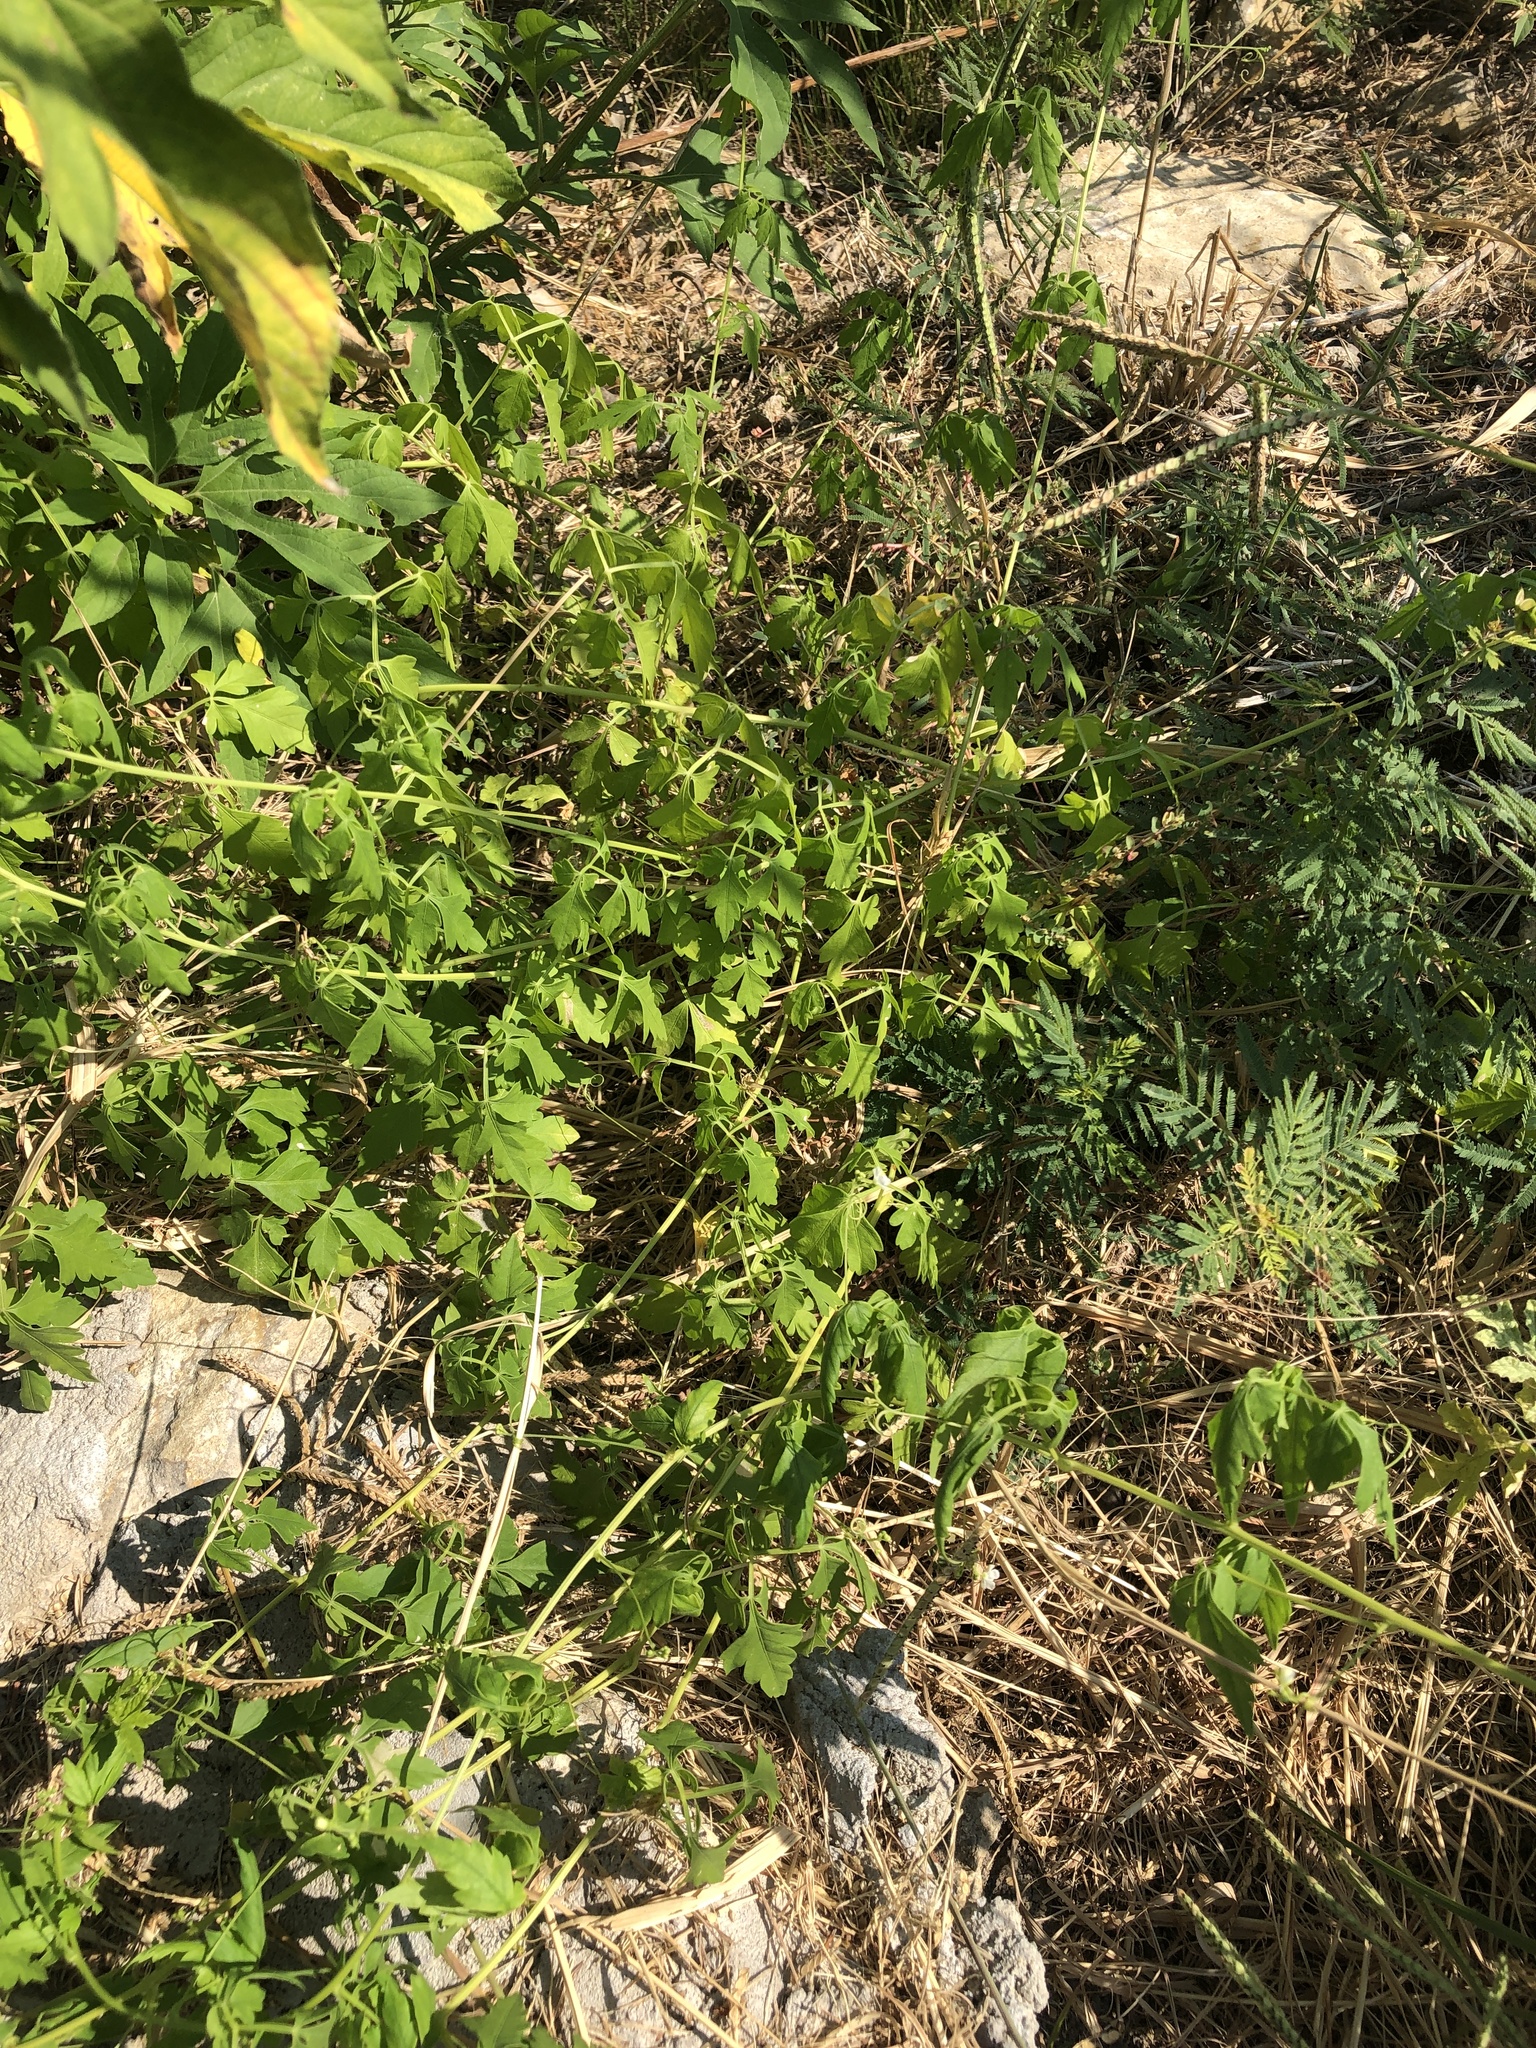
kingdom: Plantae
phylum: Tracheophyta
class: Magnoliopsida
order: Sapindales
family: Sapindaceae
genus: Cardiospermum
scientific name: Cardiospermum halicacabum
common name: Balloon vine
